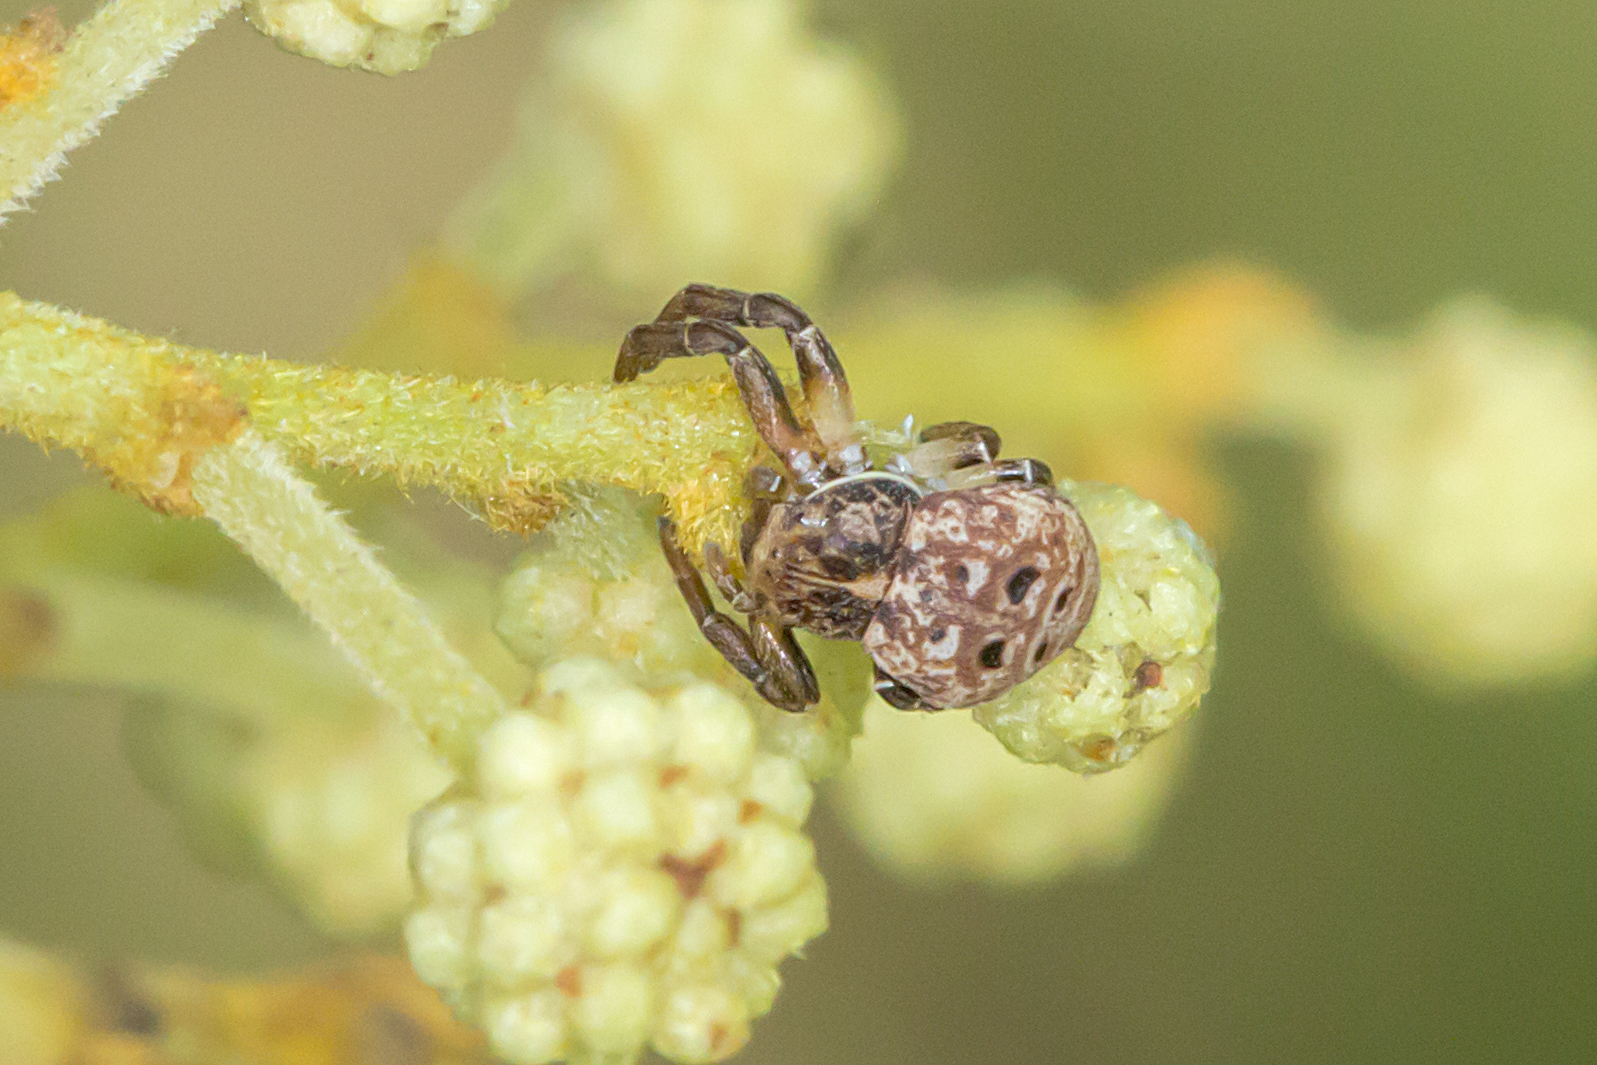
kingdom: Animalia
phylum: Arthropoda
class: Arachnida
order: Araneae
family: Thomisidae
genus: Cymbacha
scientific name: Cymbacha ocellata
